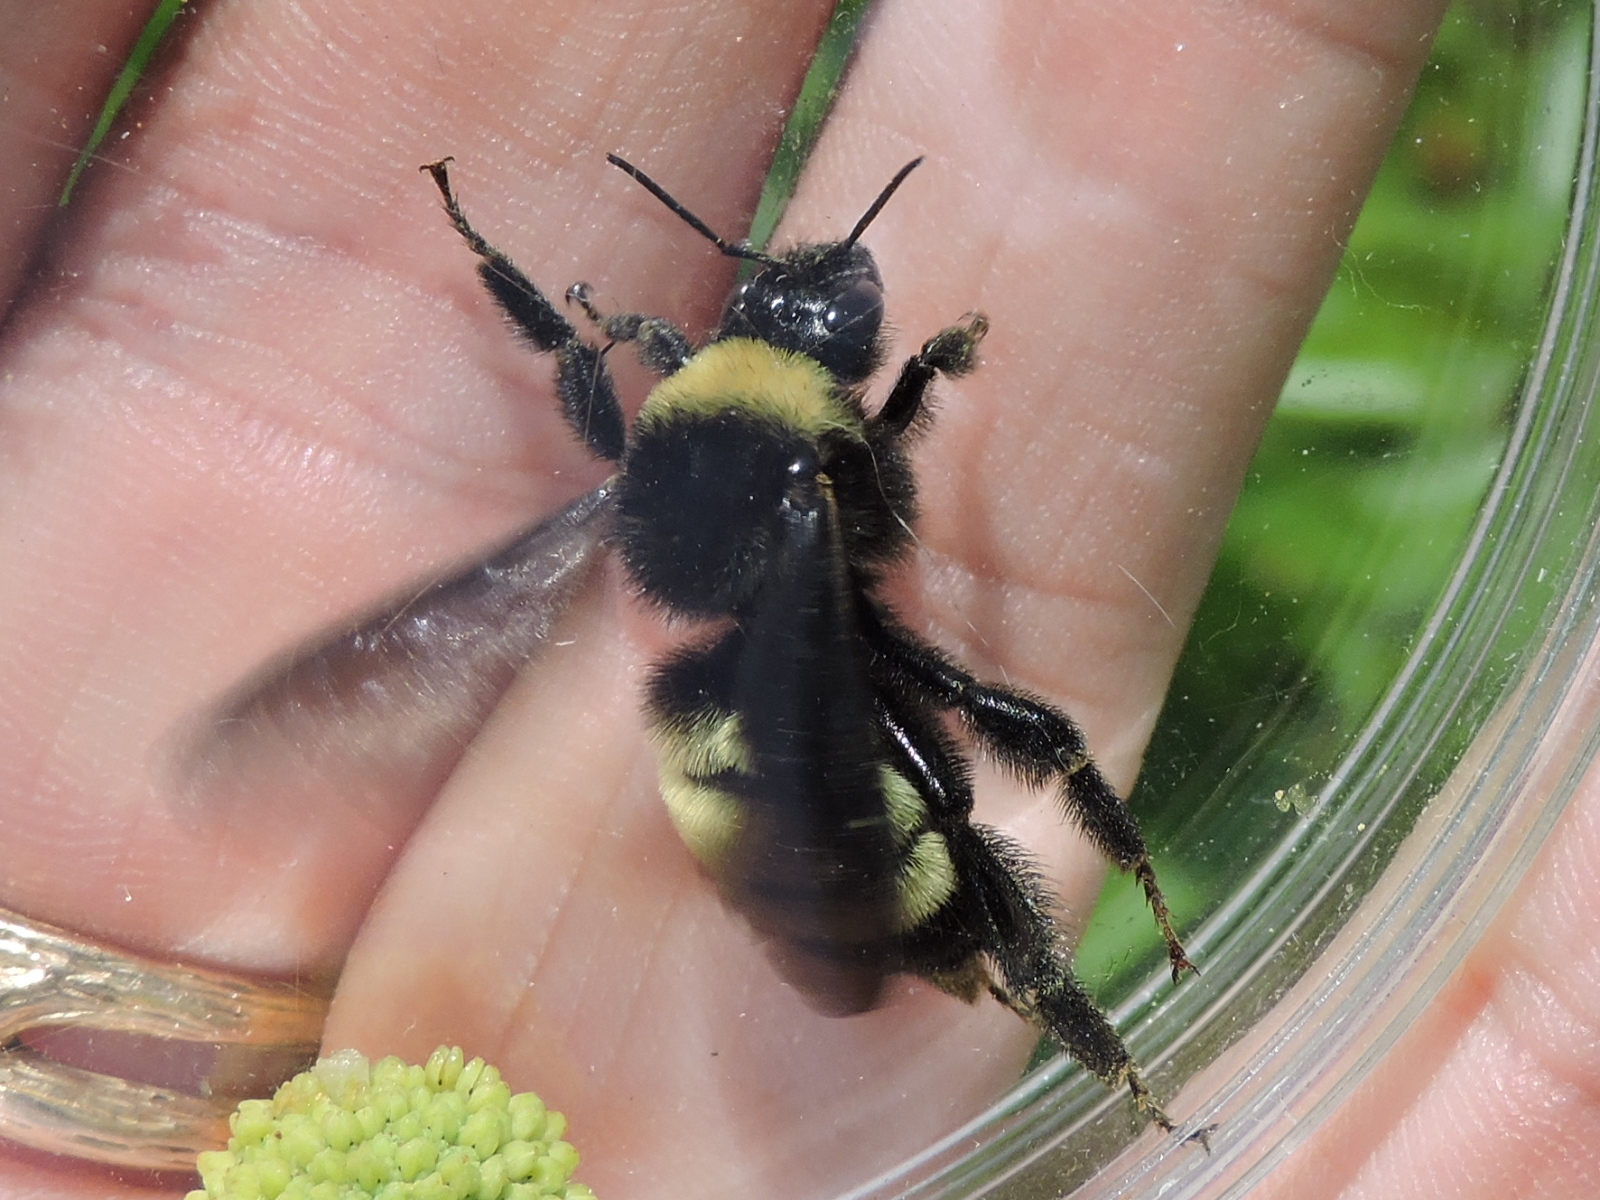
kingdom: Animalia
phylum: Arthropoda
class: Insecta
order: Hymenoptera
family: Apidae
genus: Bombus
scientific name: Bombus pensylvanicus
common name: Bumble bee
